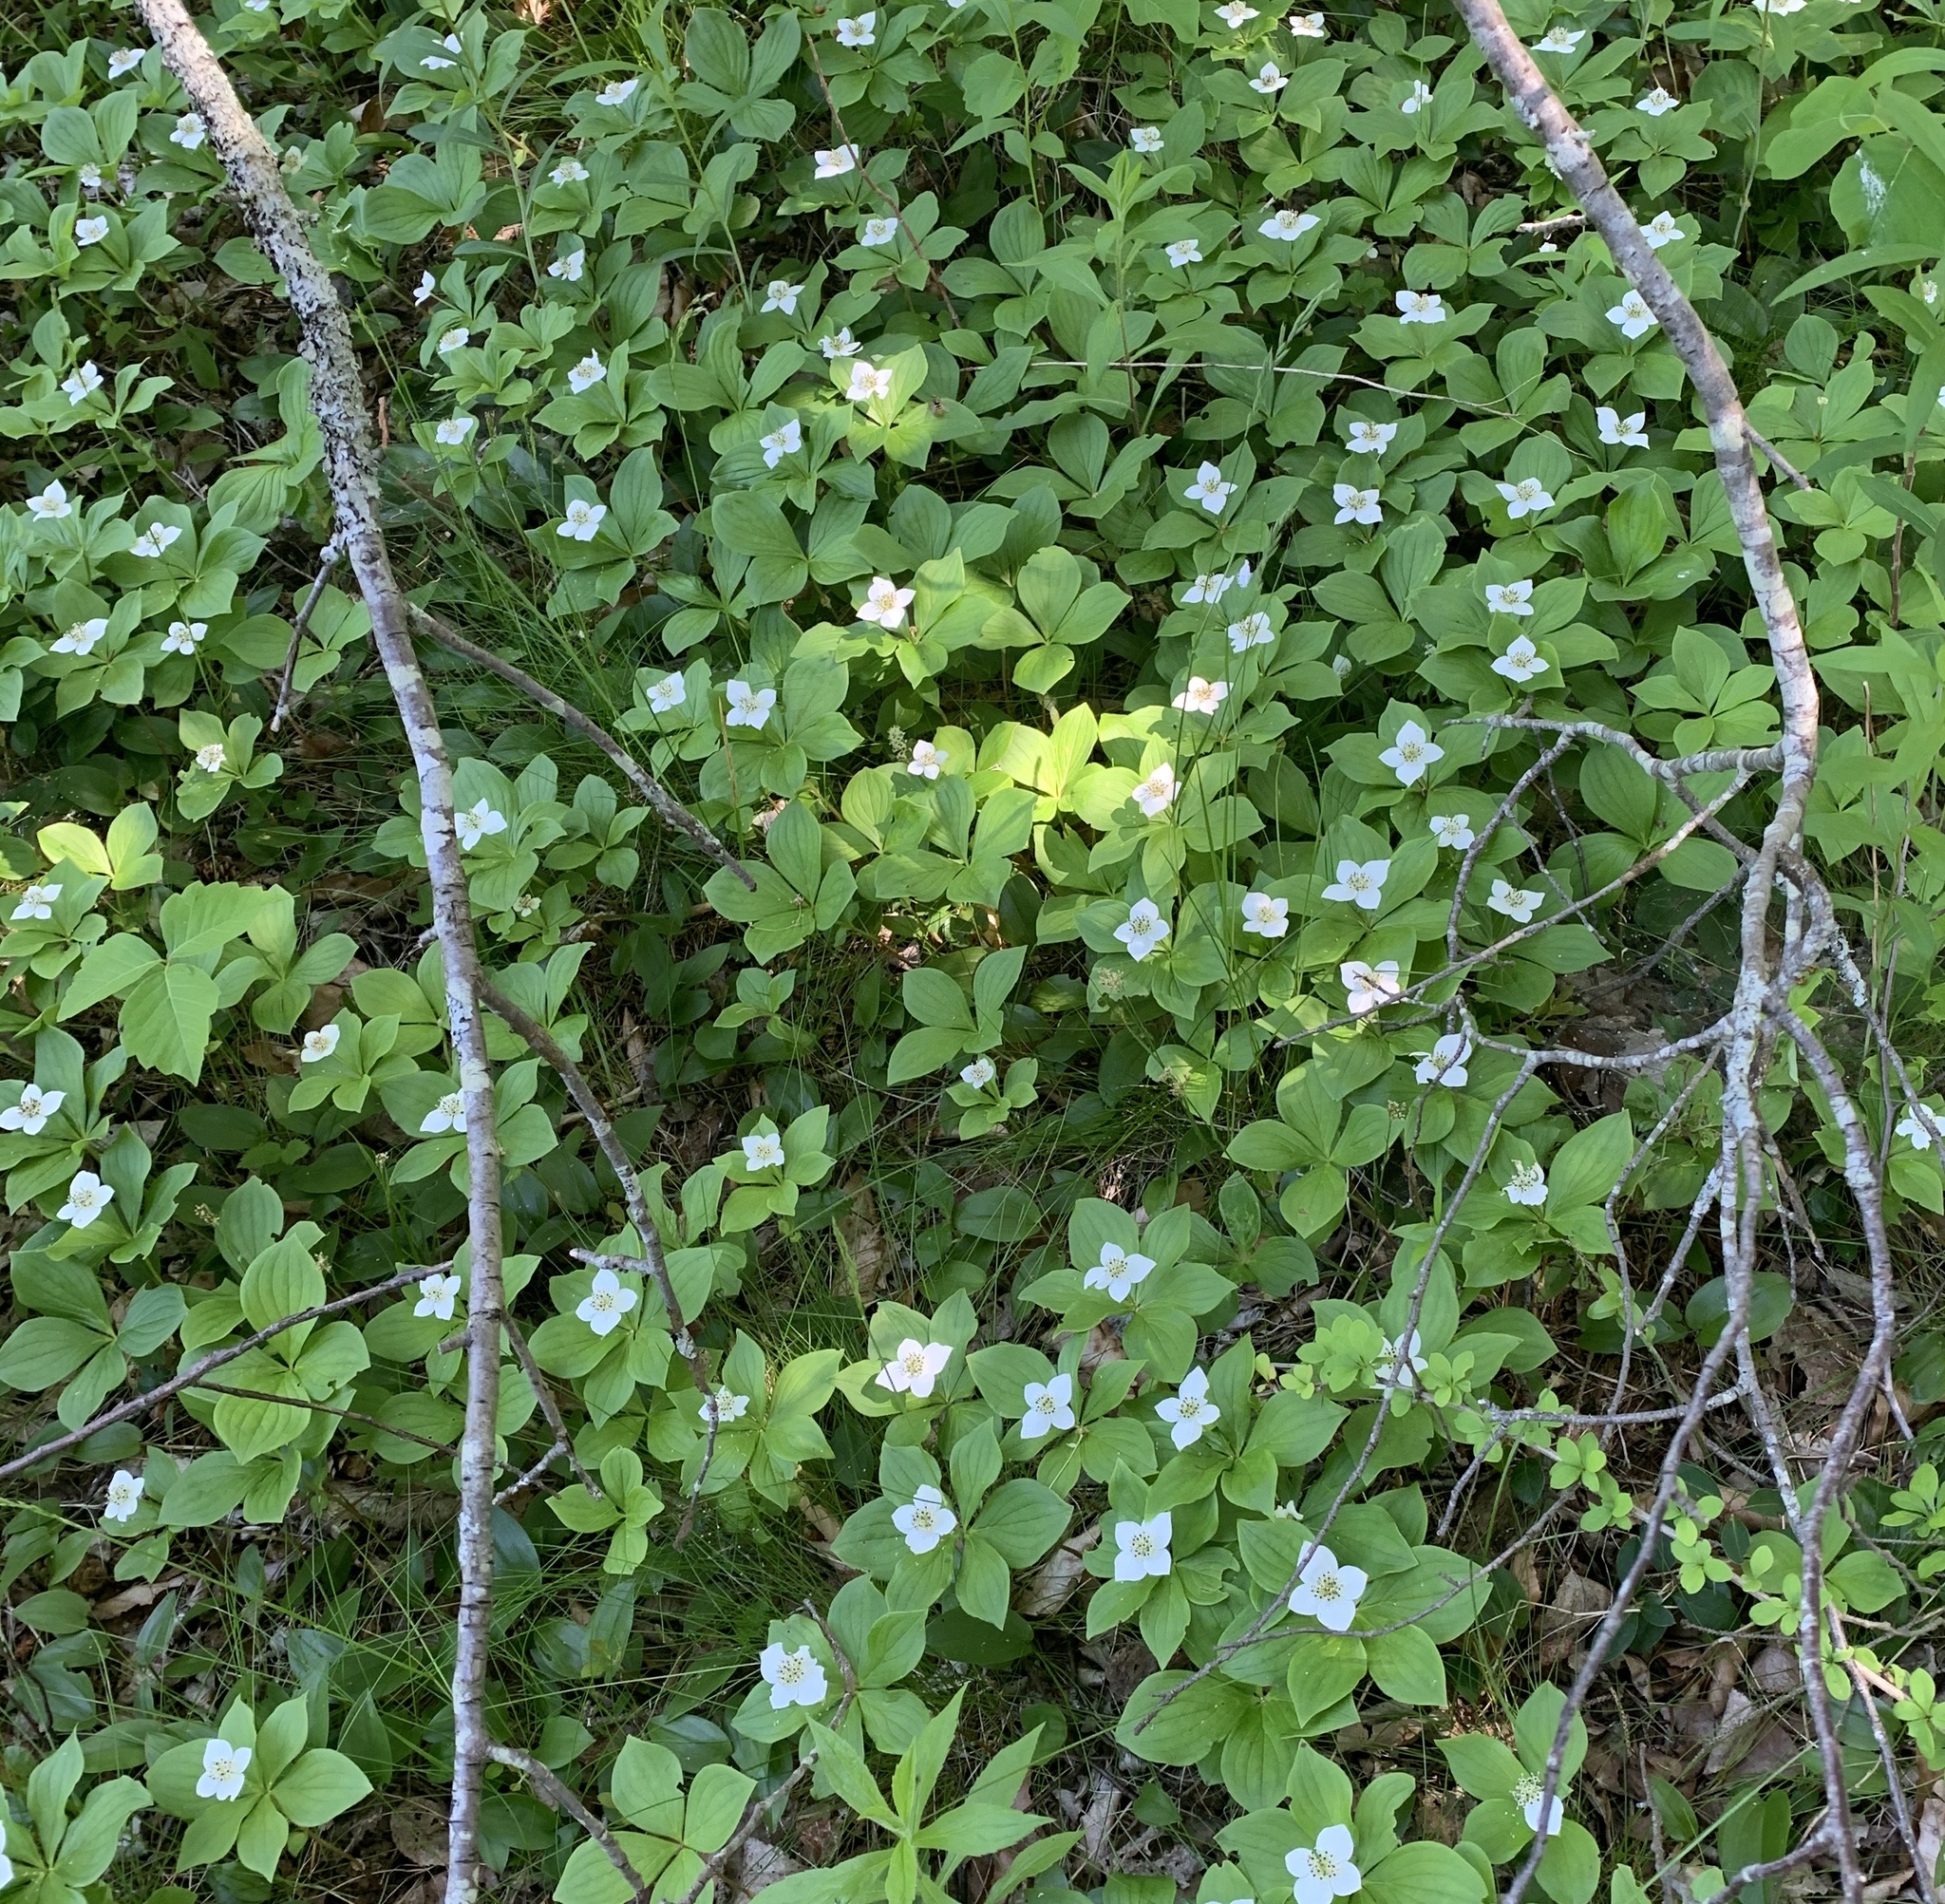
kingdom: Plantae
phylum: Tracheophyta
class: Magnoliopsida
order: Cornales
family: Cornaceae
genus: Cornus
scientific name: Cornus canadensis
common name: Creeping dogwood
